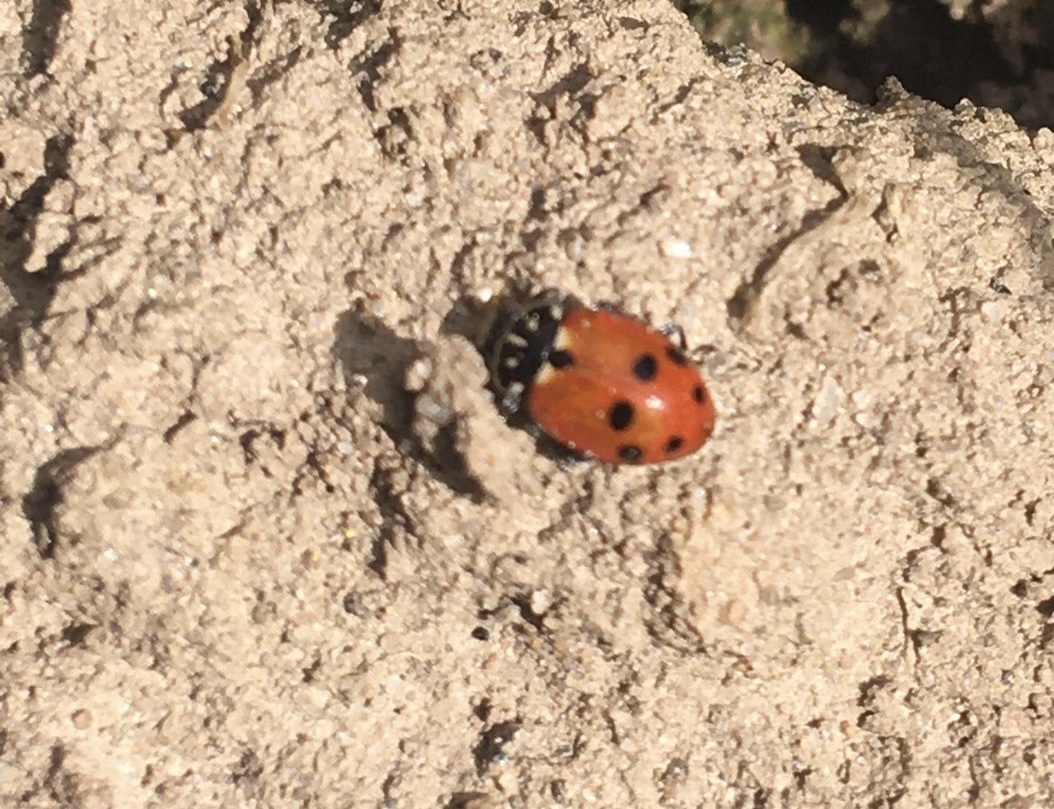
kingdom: Animalia
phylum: Arthropoda
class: Insecta
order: Coleoptera
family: Coccinellidae
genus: Hippodamia
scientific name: Hippodamia variegata
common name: Ladybird beetle
